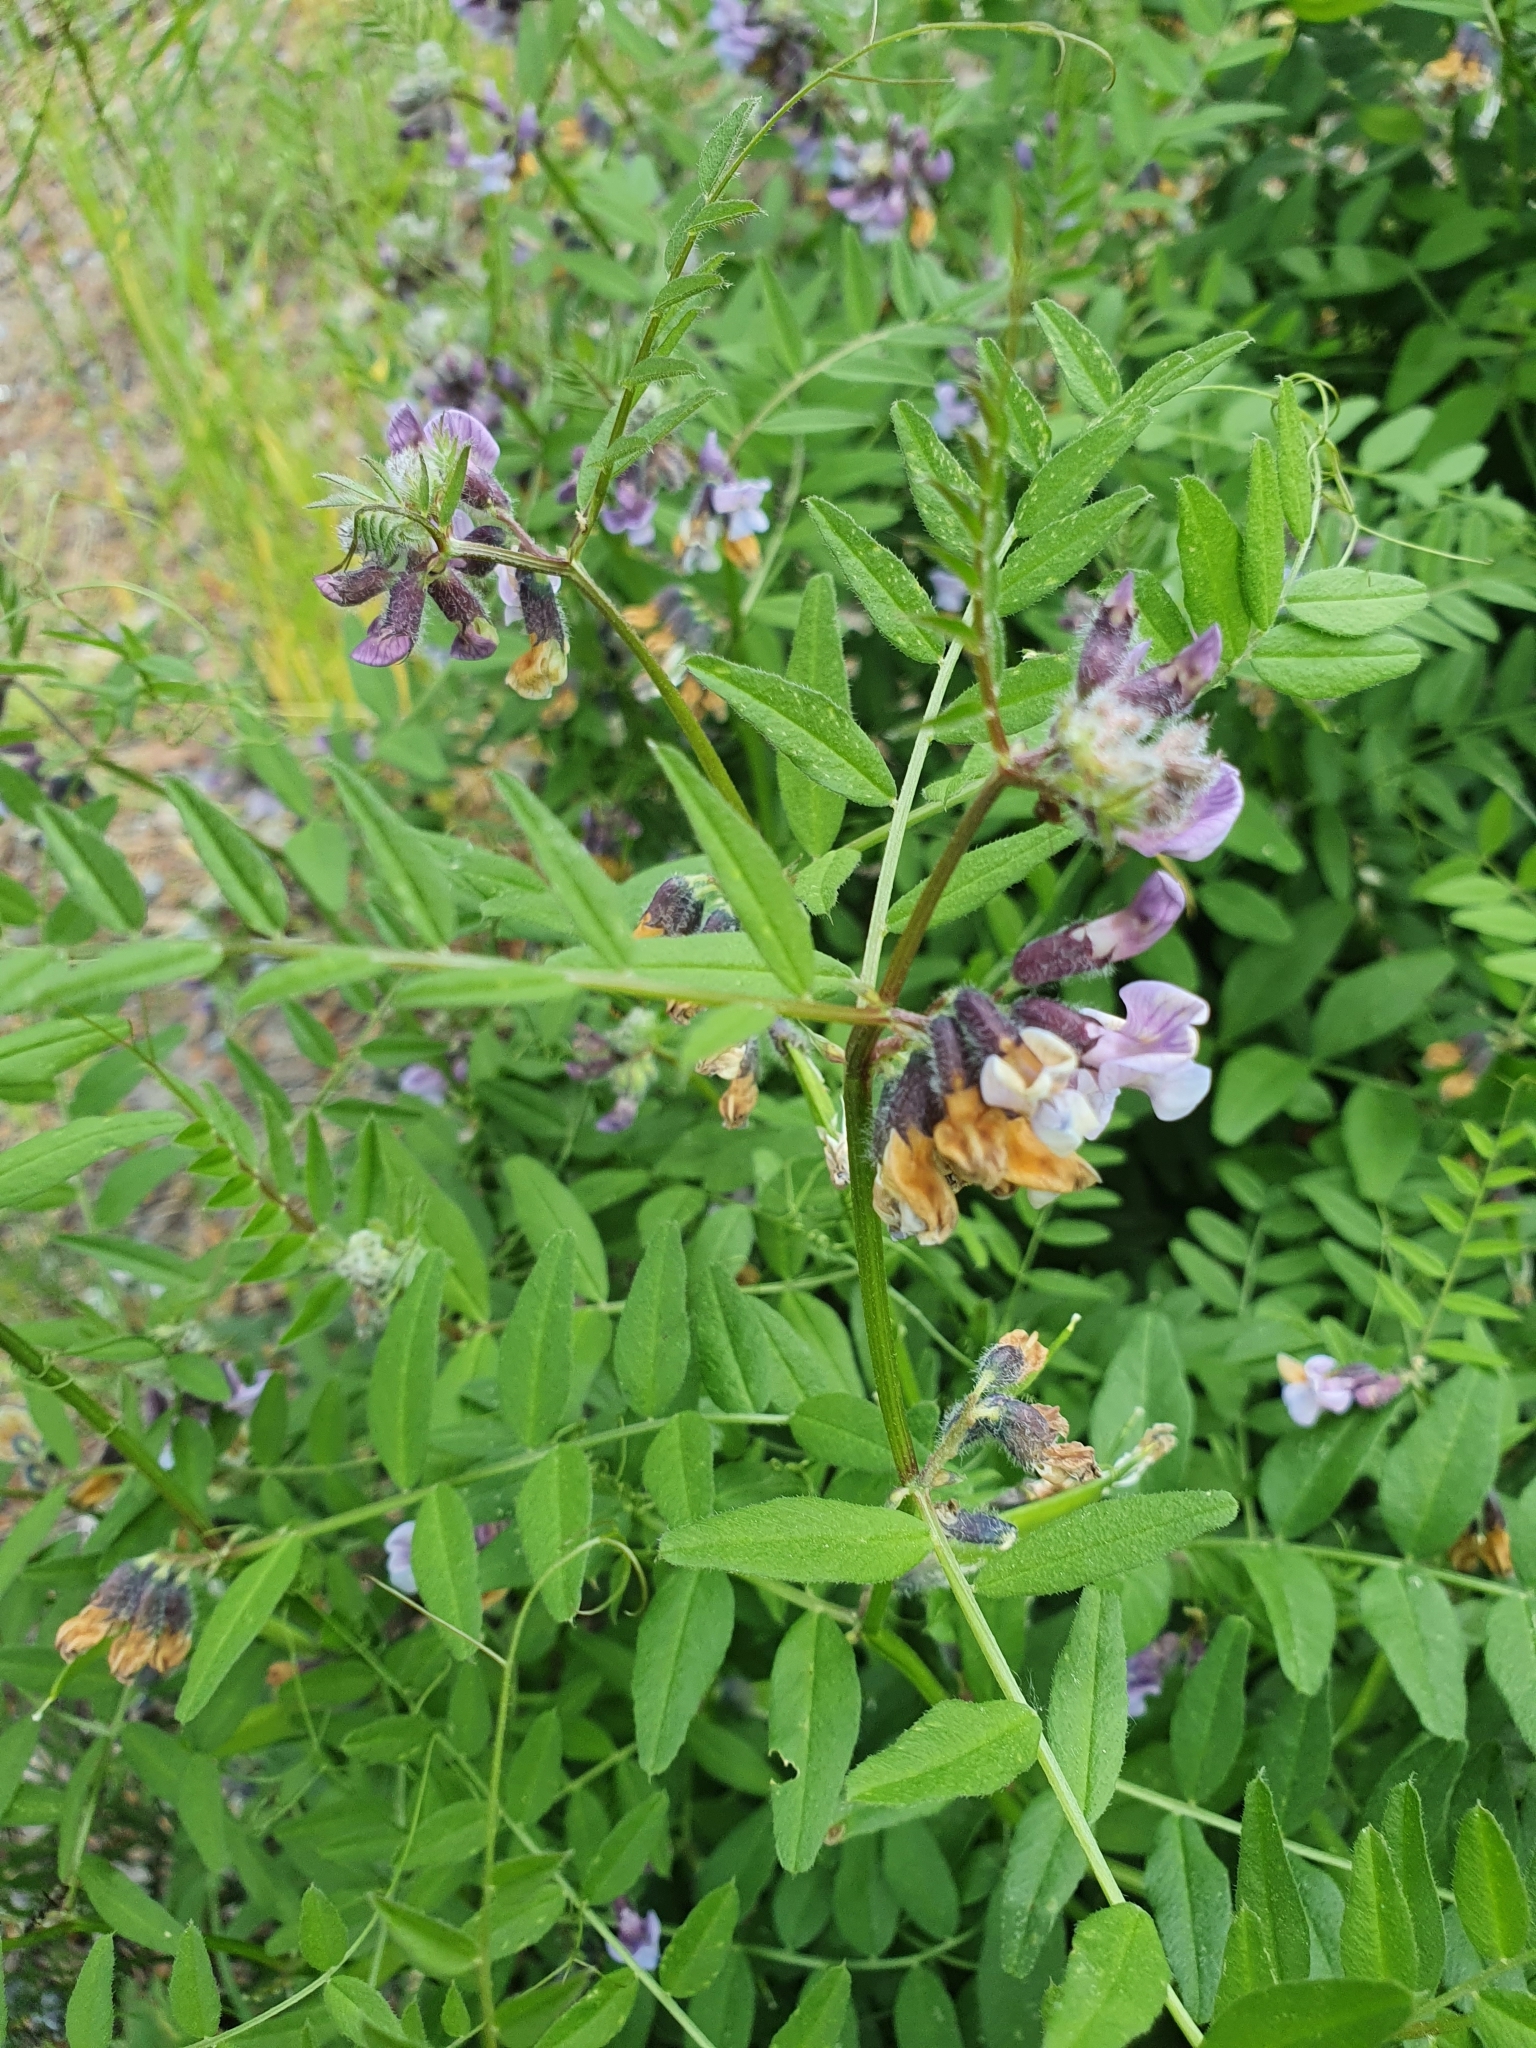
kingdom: Plantae
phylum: Tracheophyta
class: Magnoliopsida
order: Fabales
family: Fabaceae
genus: Vicia
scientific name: Vicia sepium
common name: Bush vetch
